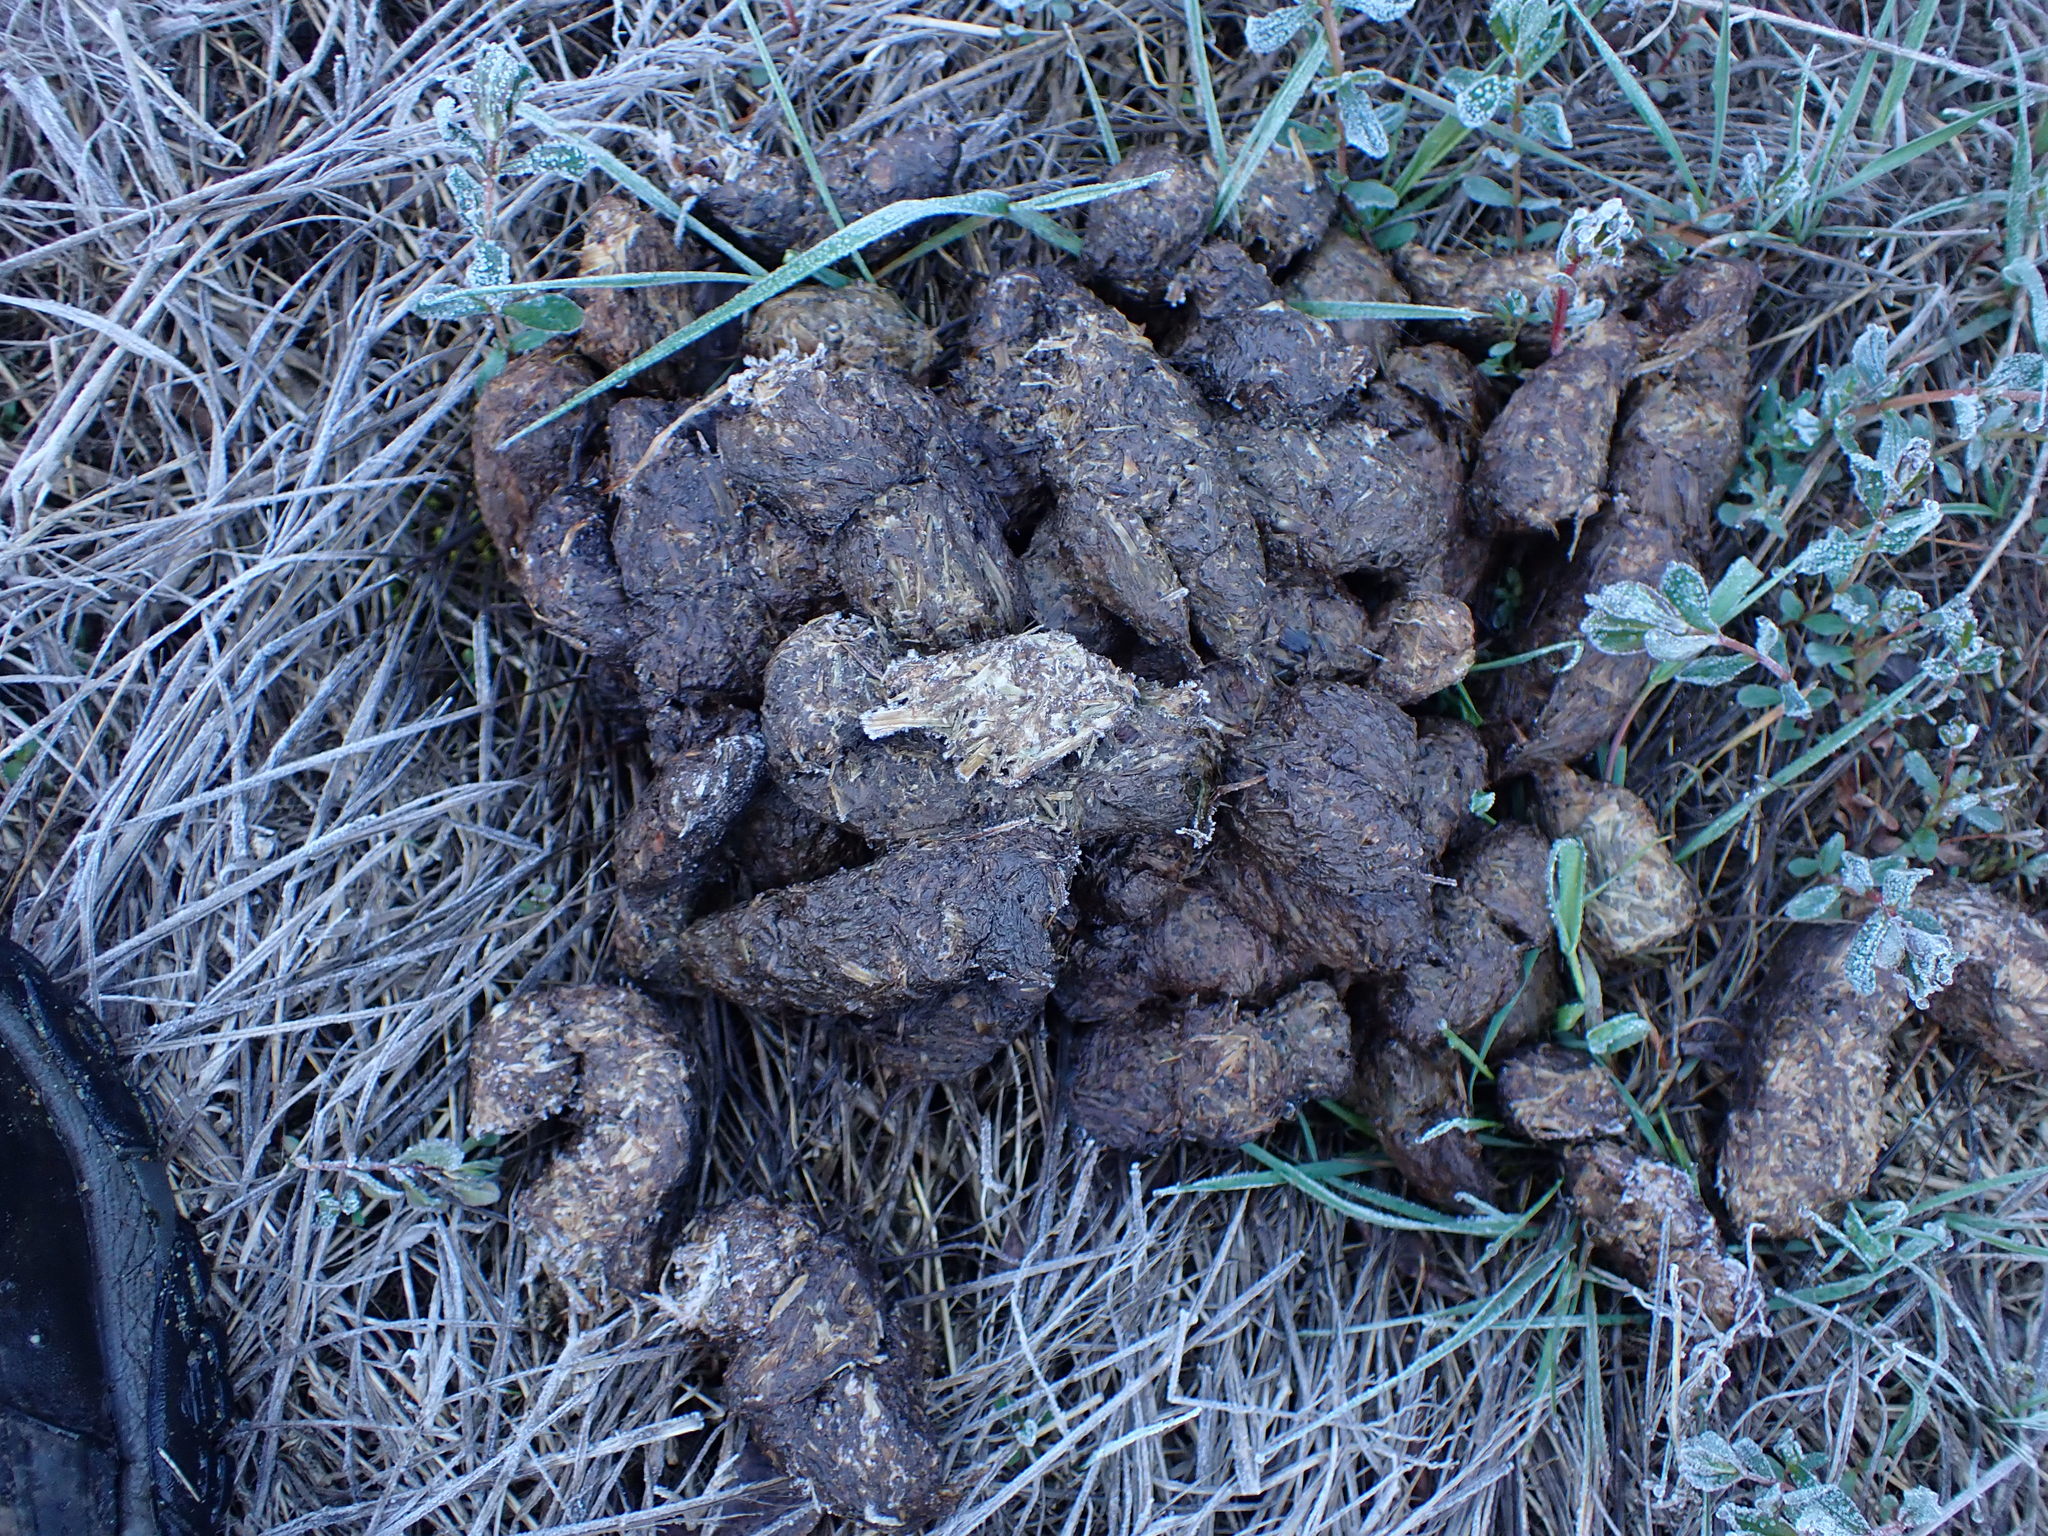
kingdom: Animalia
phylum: Chordata
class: Mammalia
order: Carnivora
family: Ursidae
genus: Ursus
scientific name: Ursus americanus
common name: American black bear
